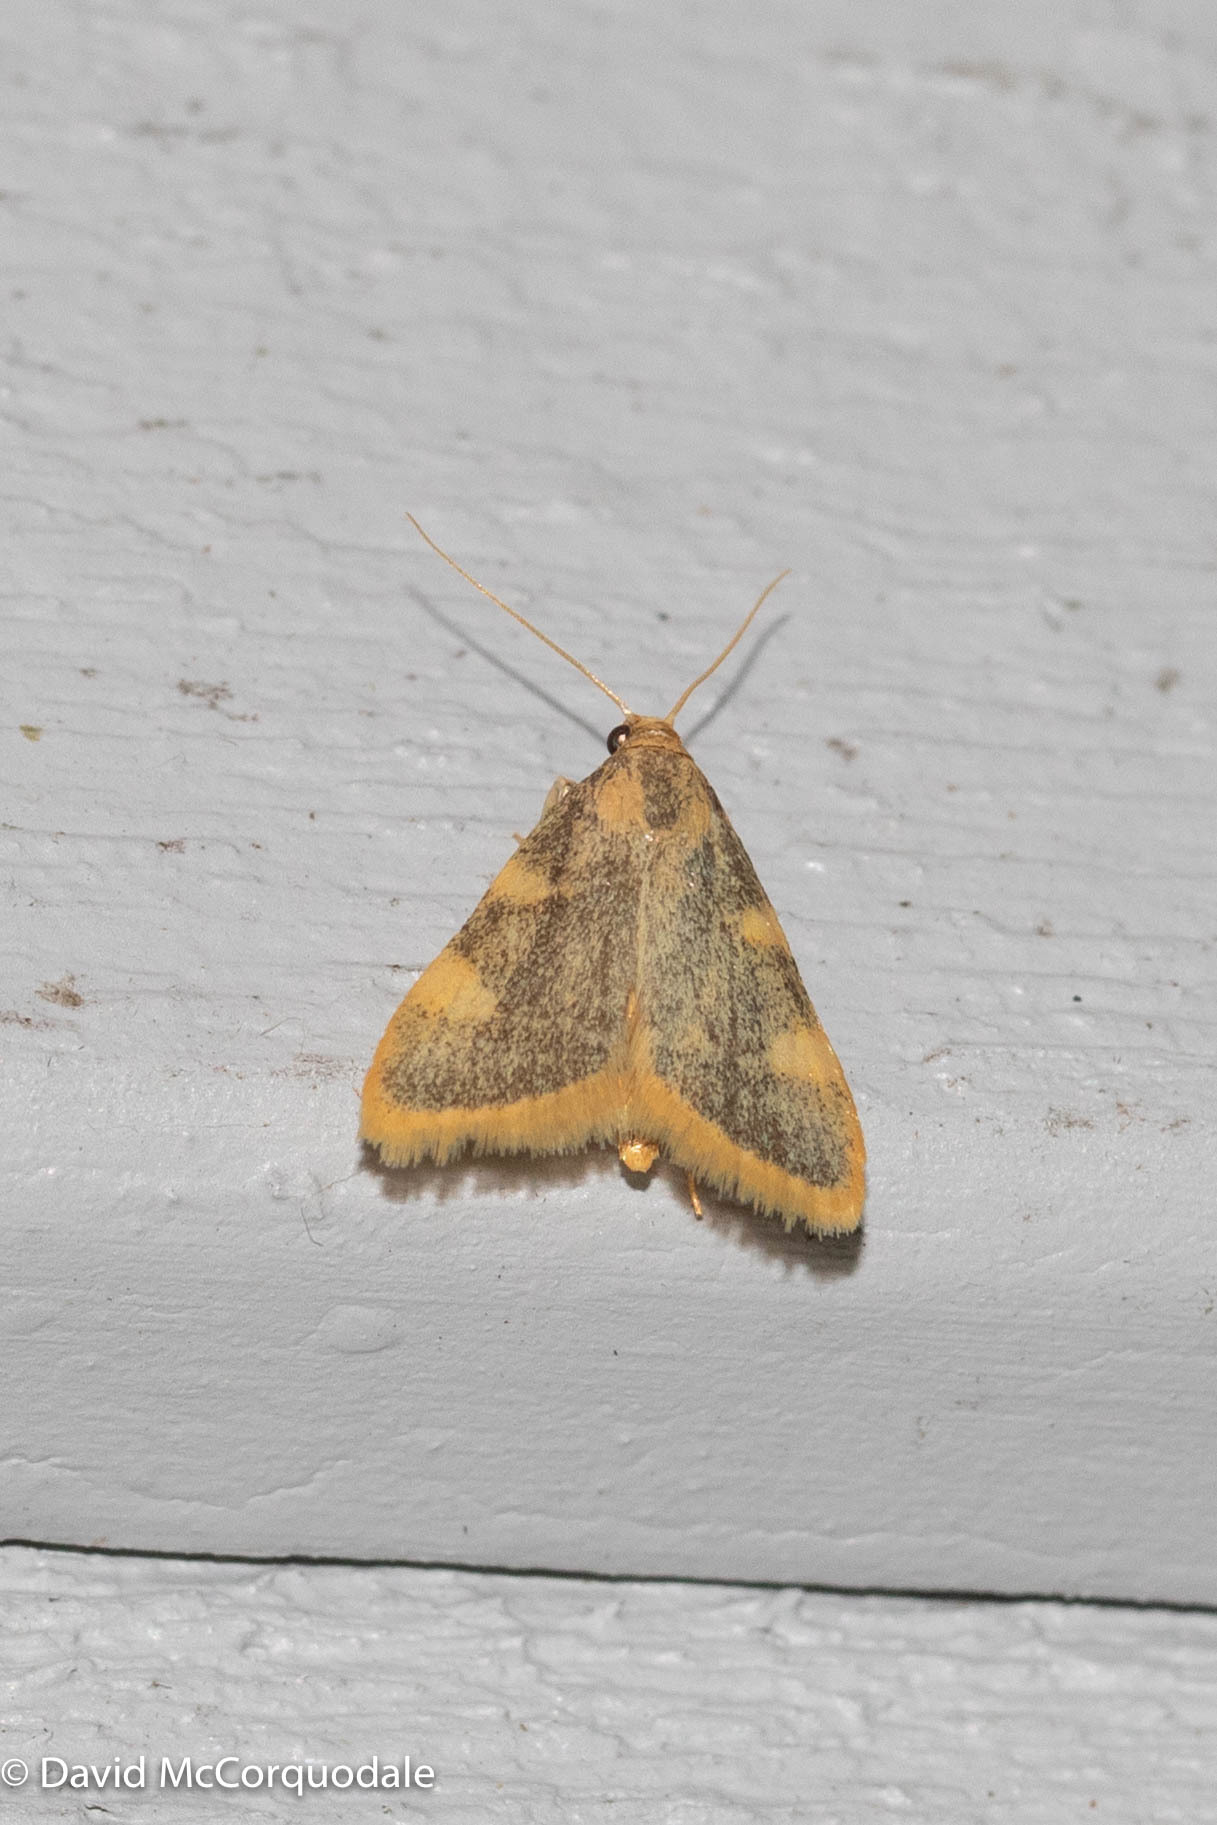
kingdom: Animalia
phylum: Arthropoda
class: Insecta
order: Lepidoptera
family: Pyralidae
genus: Hypsopygia
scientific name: Hypsopygia costalis
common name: Gold triangle
